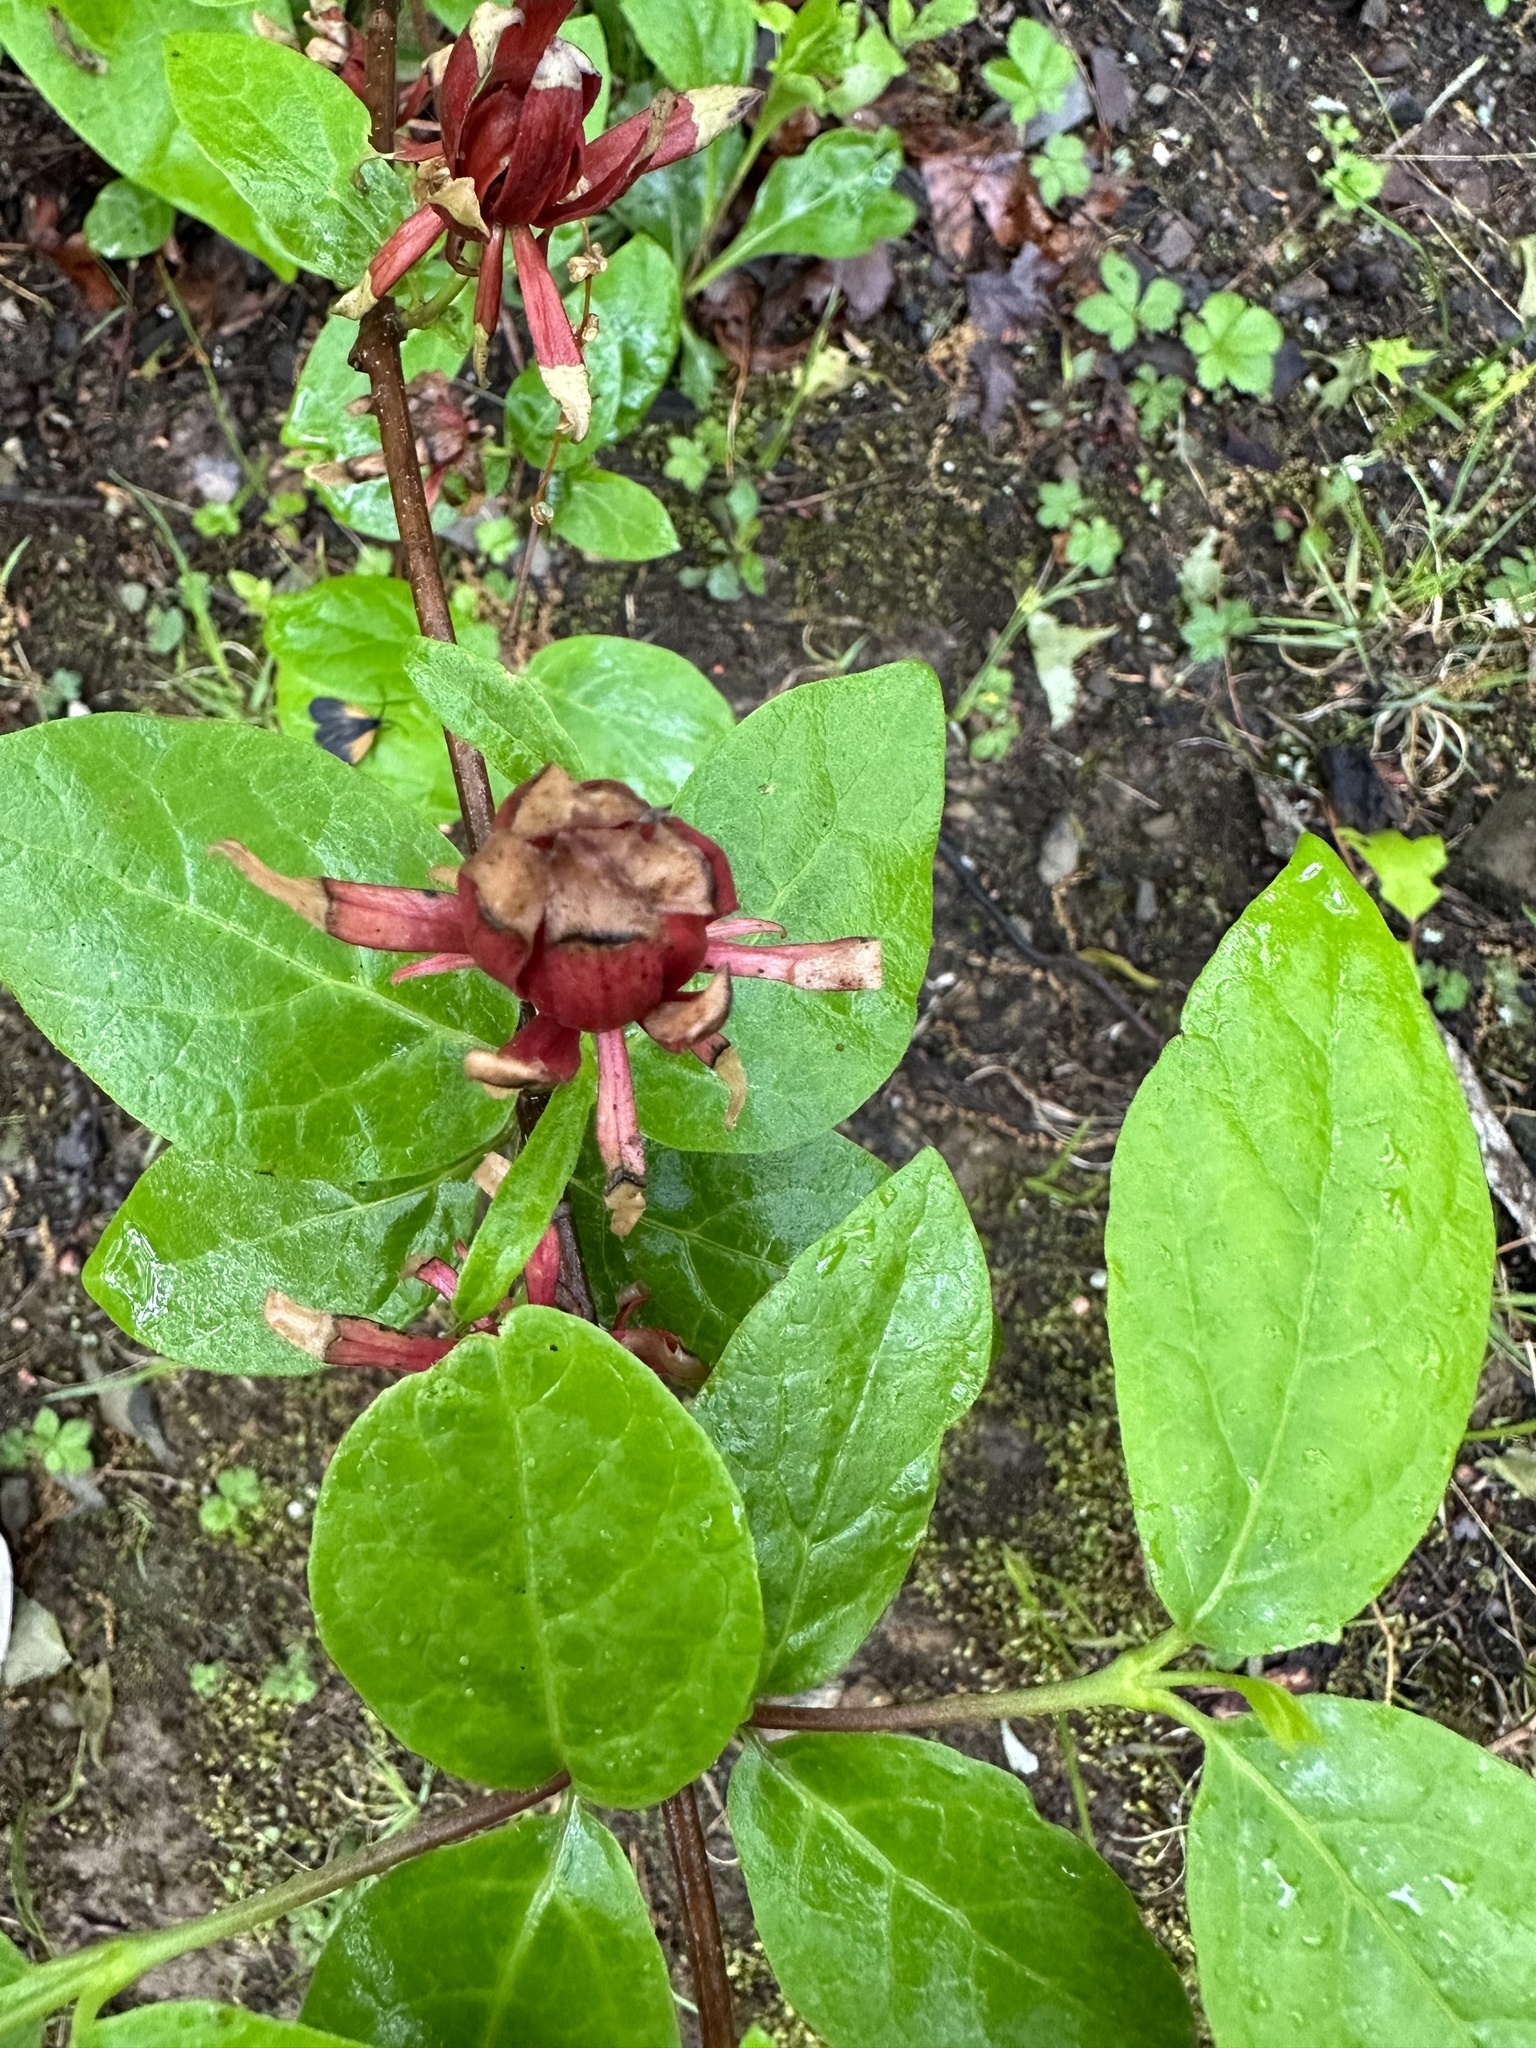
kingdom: Plantae
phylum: Tracheophyta
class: Magnoliopsida
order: Laurales
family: Calycanthaceae
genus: Calycanthus
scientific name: Calycanthus floridus
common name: Carolina-allspice
